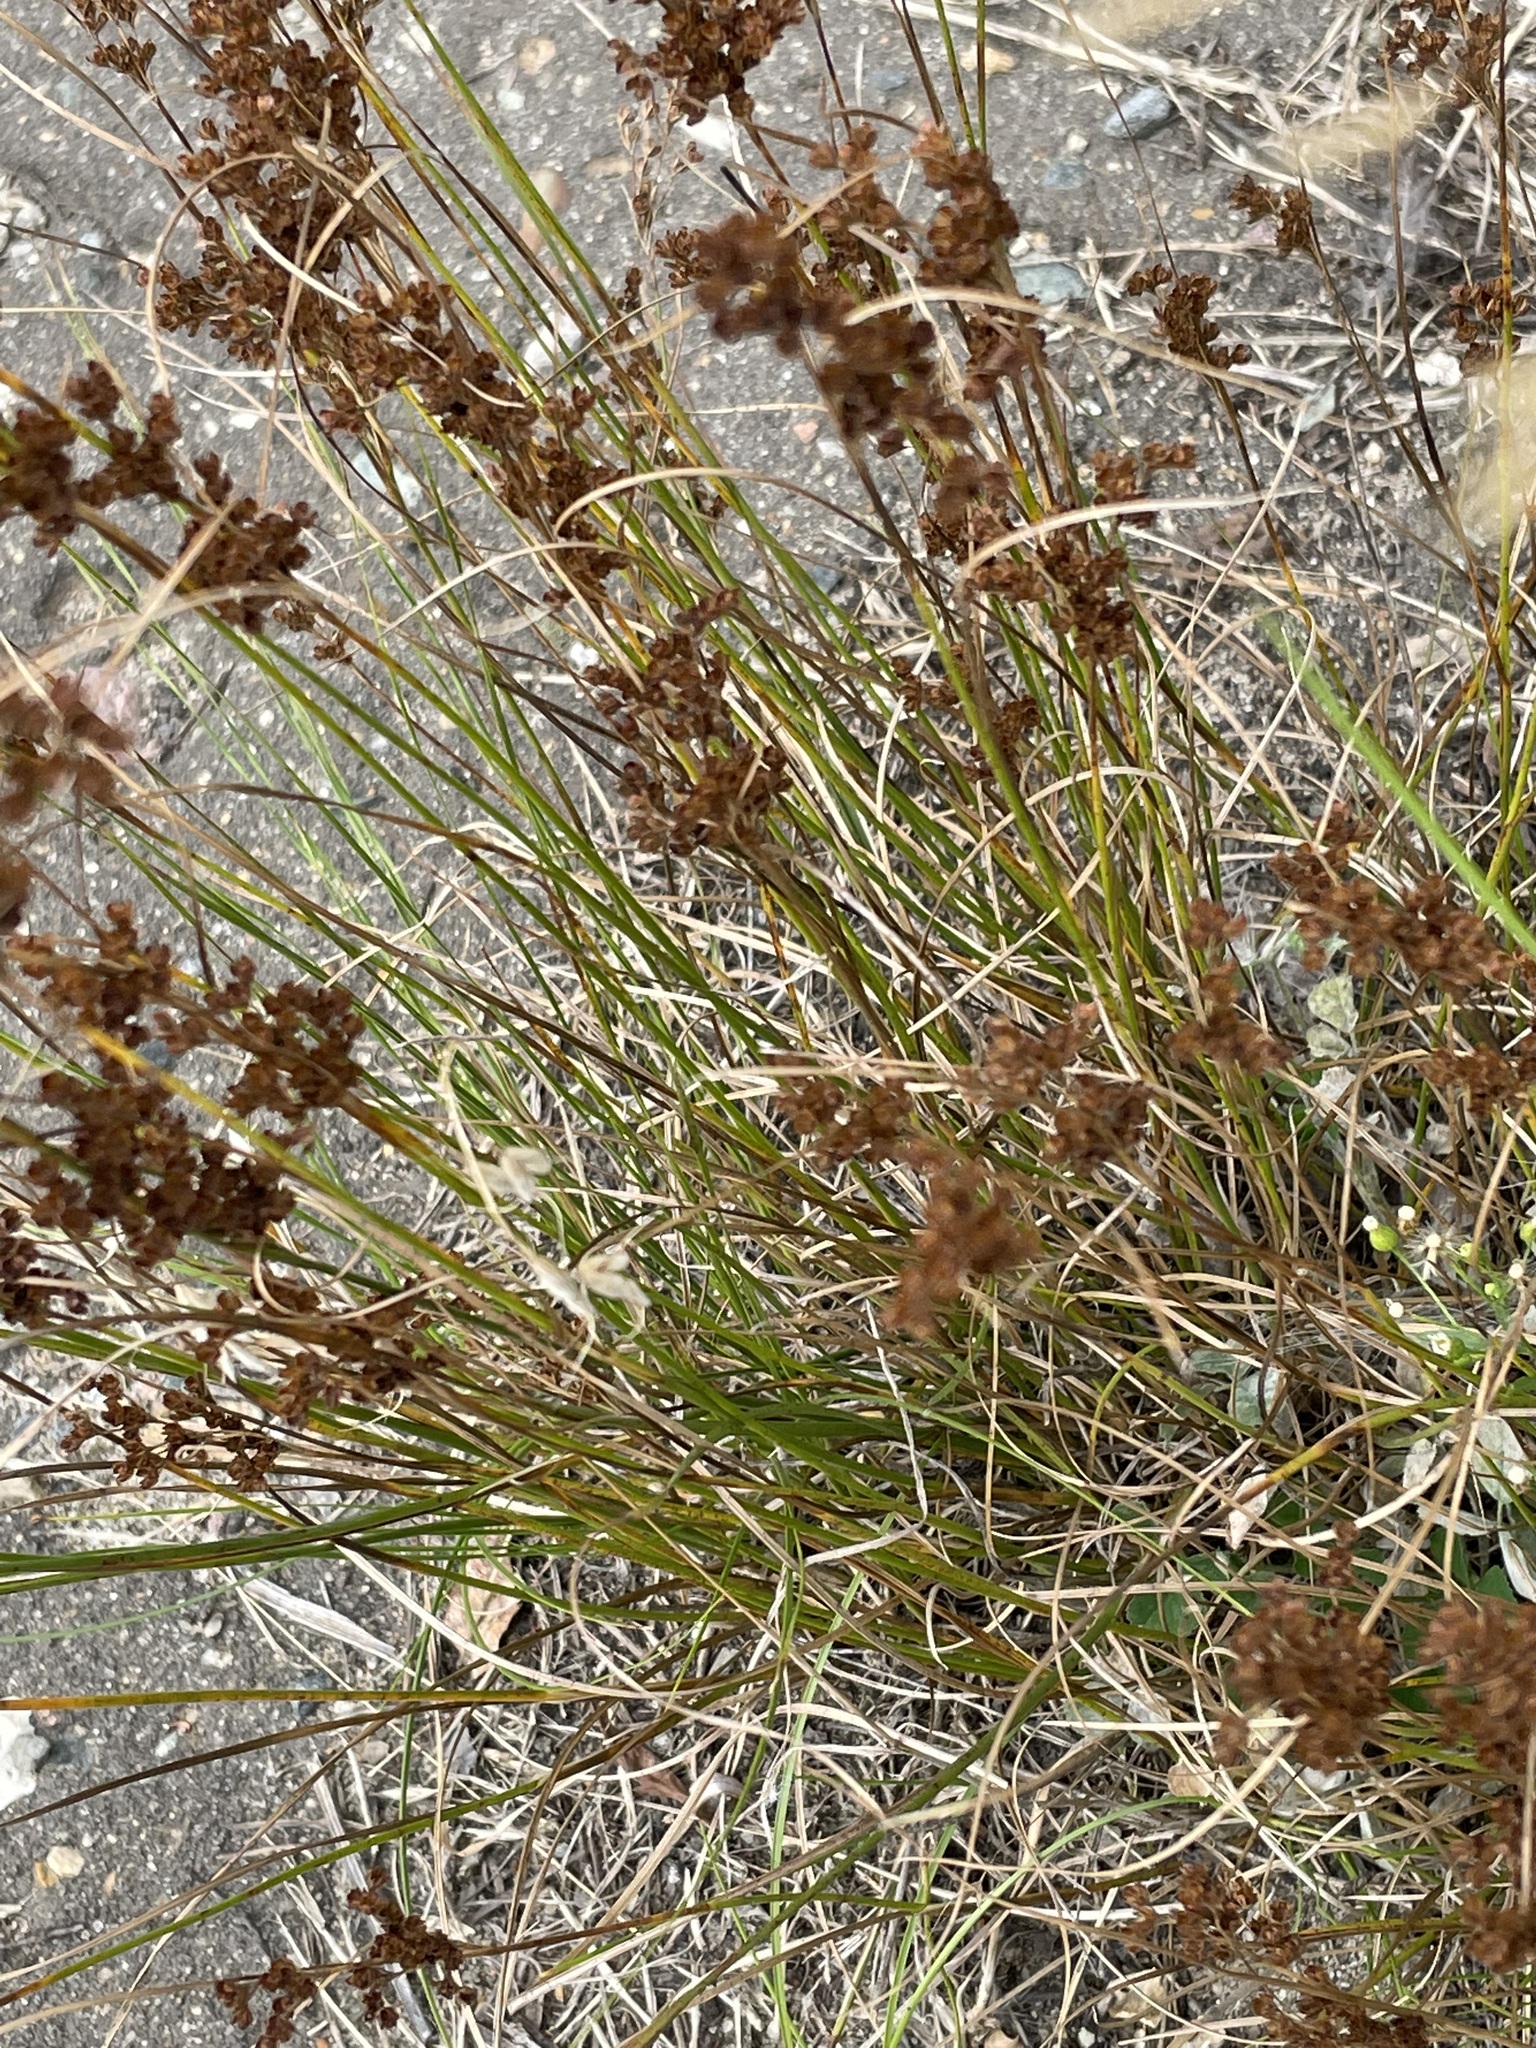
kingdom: Plantae
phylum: Tracheophyta
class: Liliopsida
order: Poales
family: Juncaceae
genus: Juncus
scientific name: Juncus compressus
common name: Round-fruited rush
